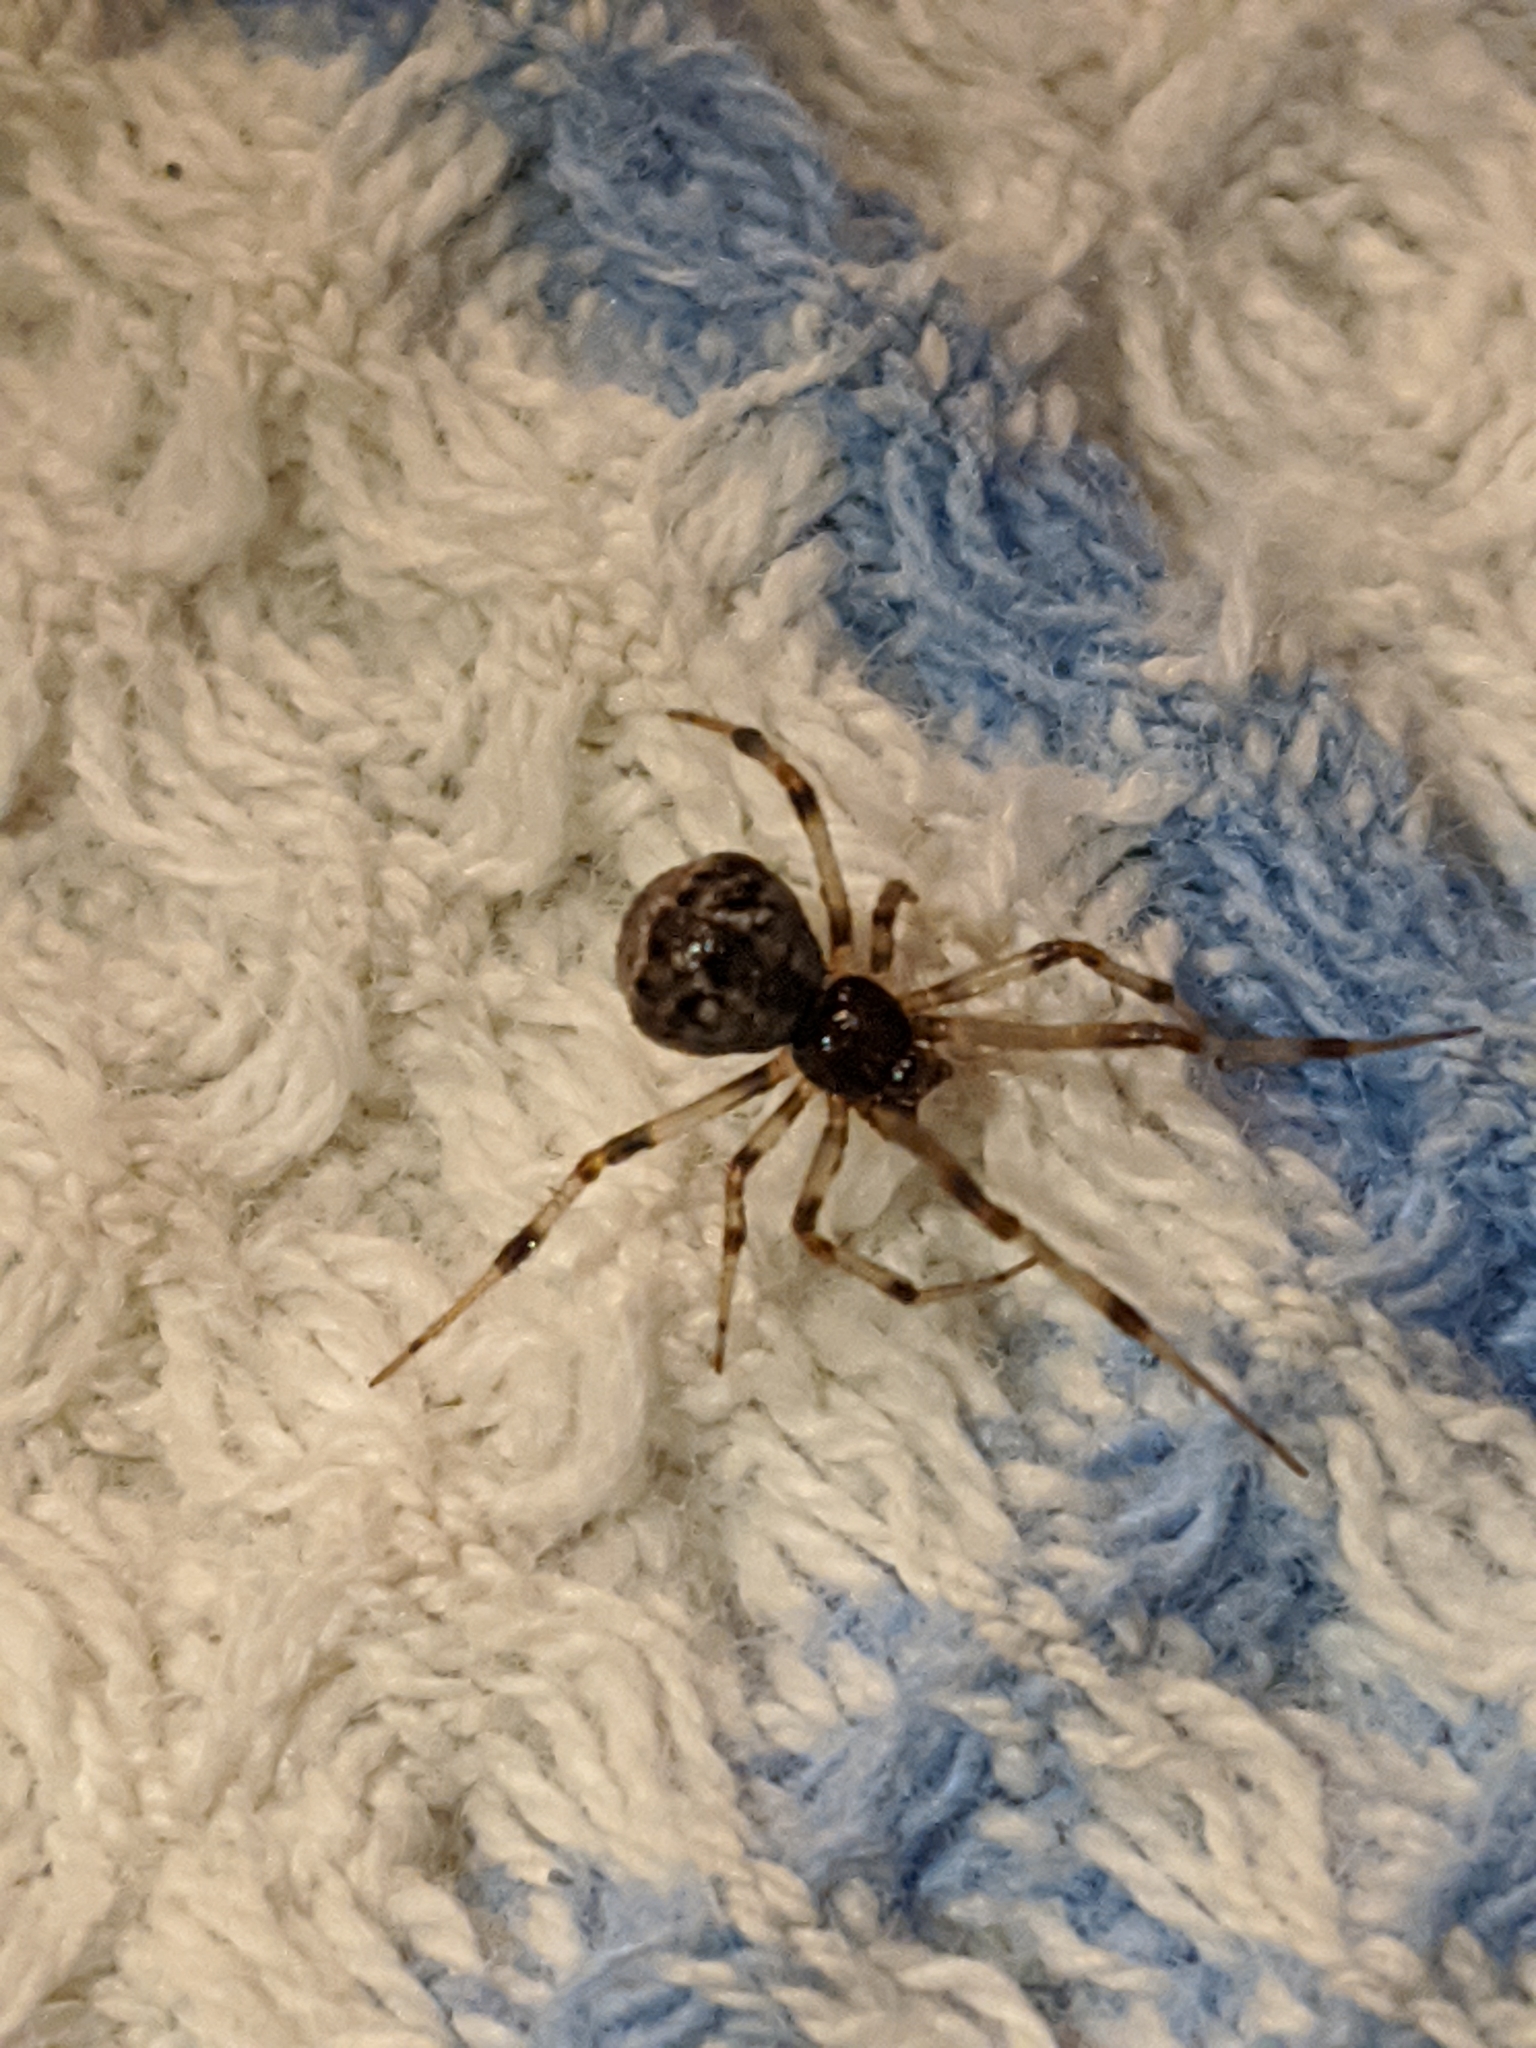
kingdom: Animalia
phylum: Arthropoda
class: Arachnida
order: Araneae
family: Theridiidae
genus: Cryptachaea
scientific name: Cryptachaea rupicola
